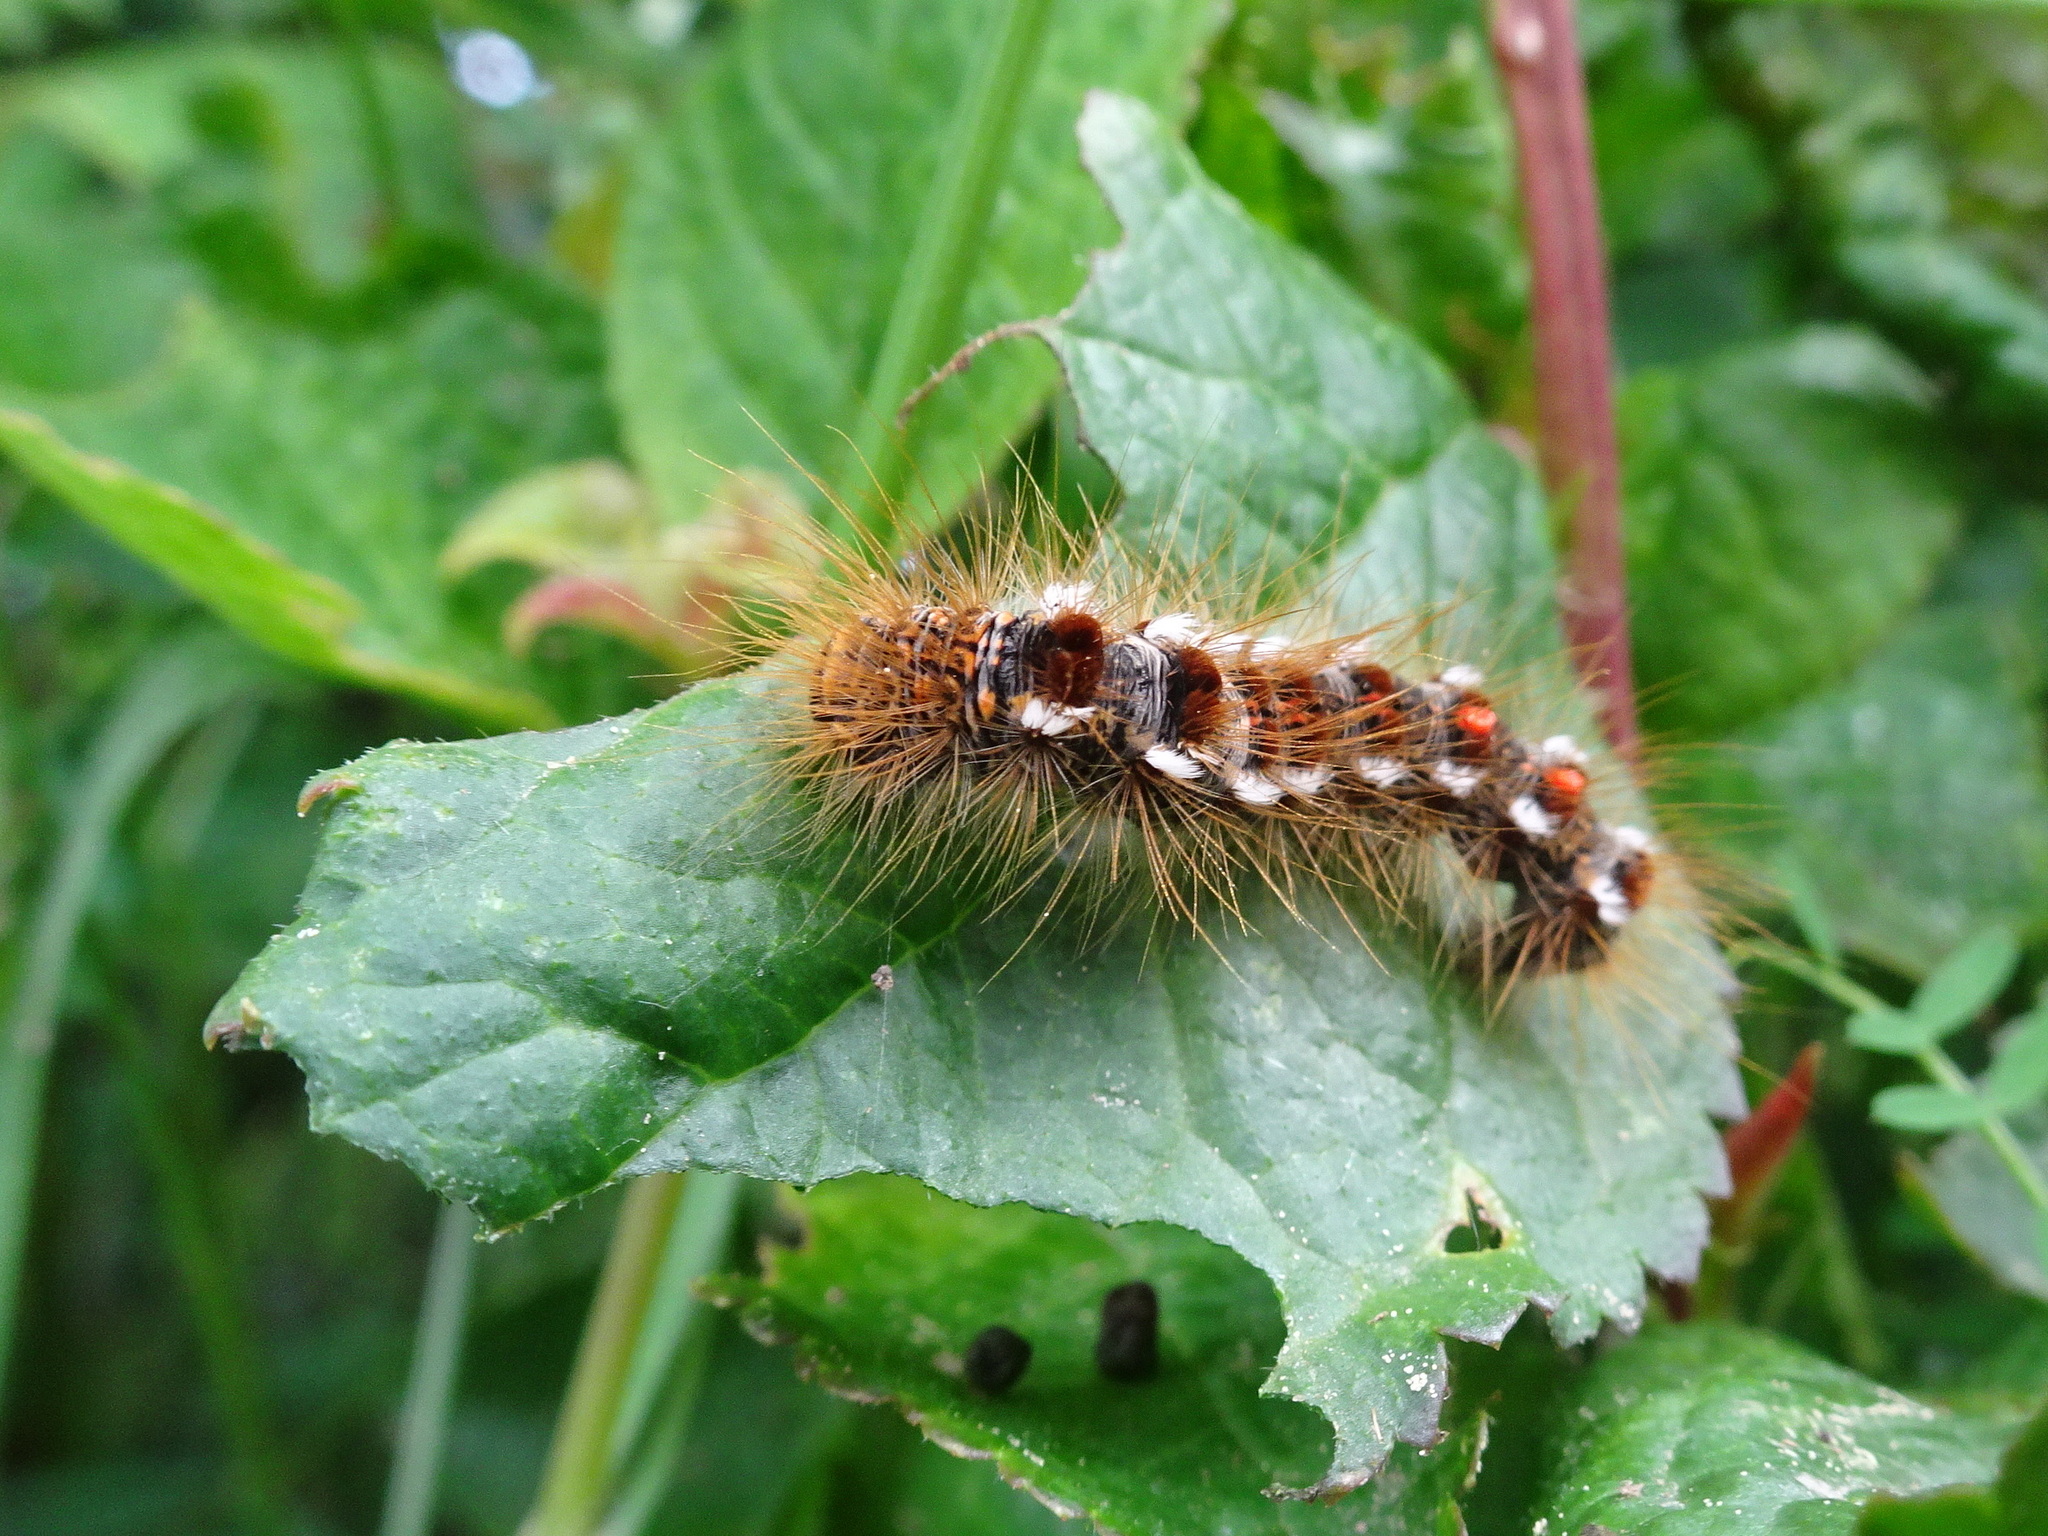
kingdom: Animalia
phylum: Arthropoda
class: Insecta
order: Lepidoptera
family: Erebidae
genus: Euproctis
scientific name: Euproctis chrysorrhoea
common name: Brown-tail
